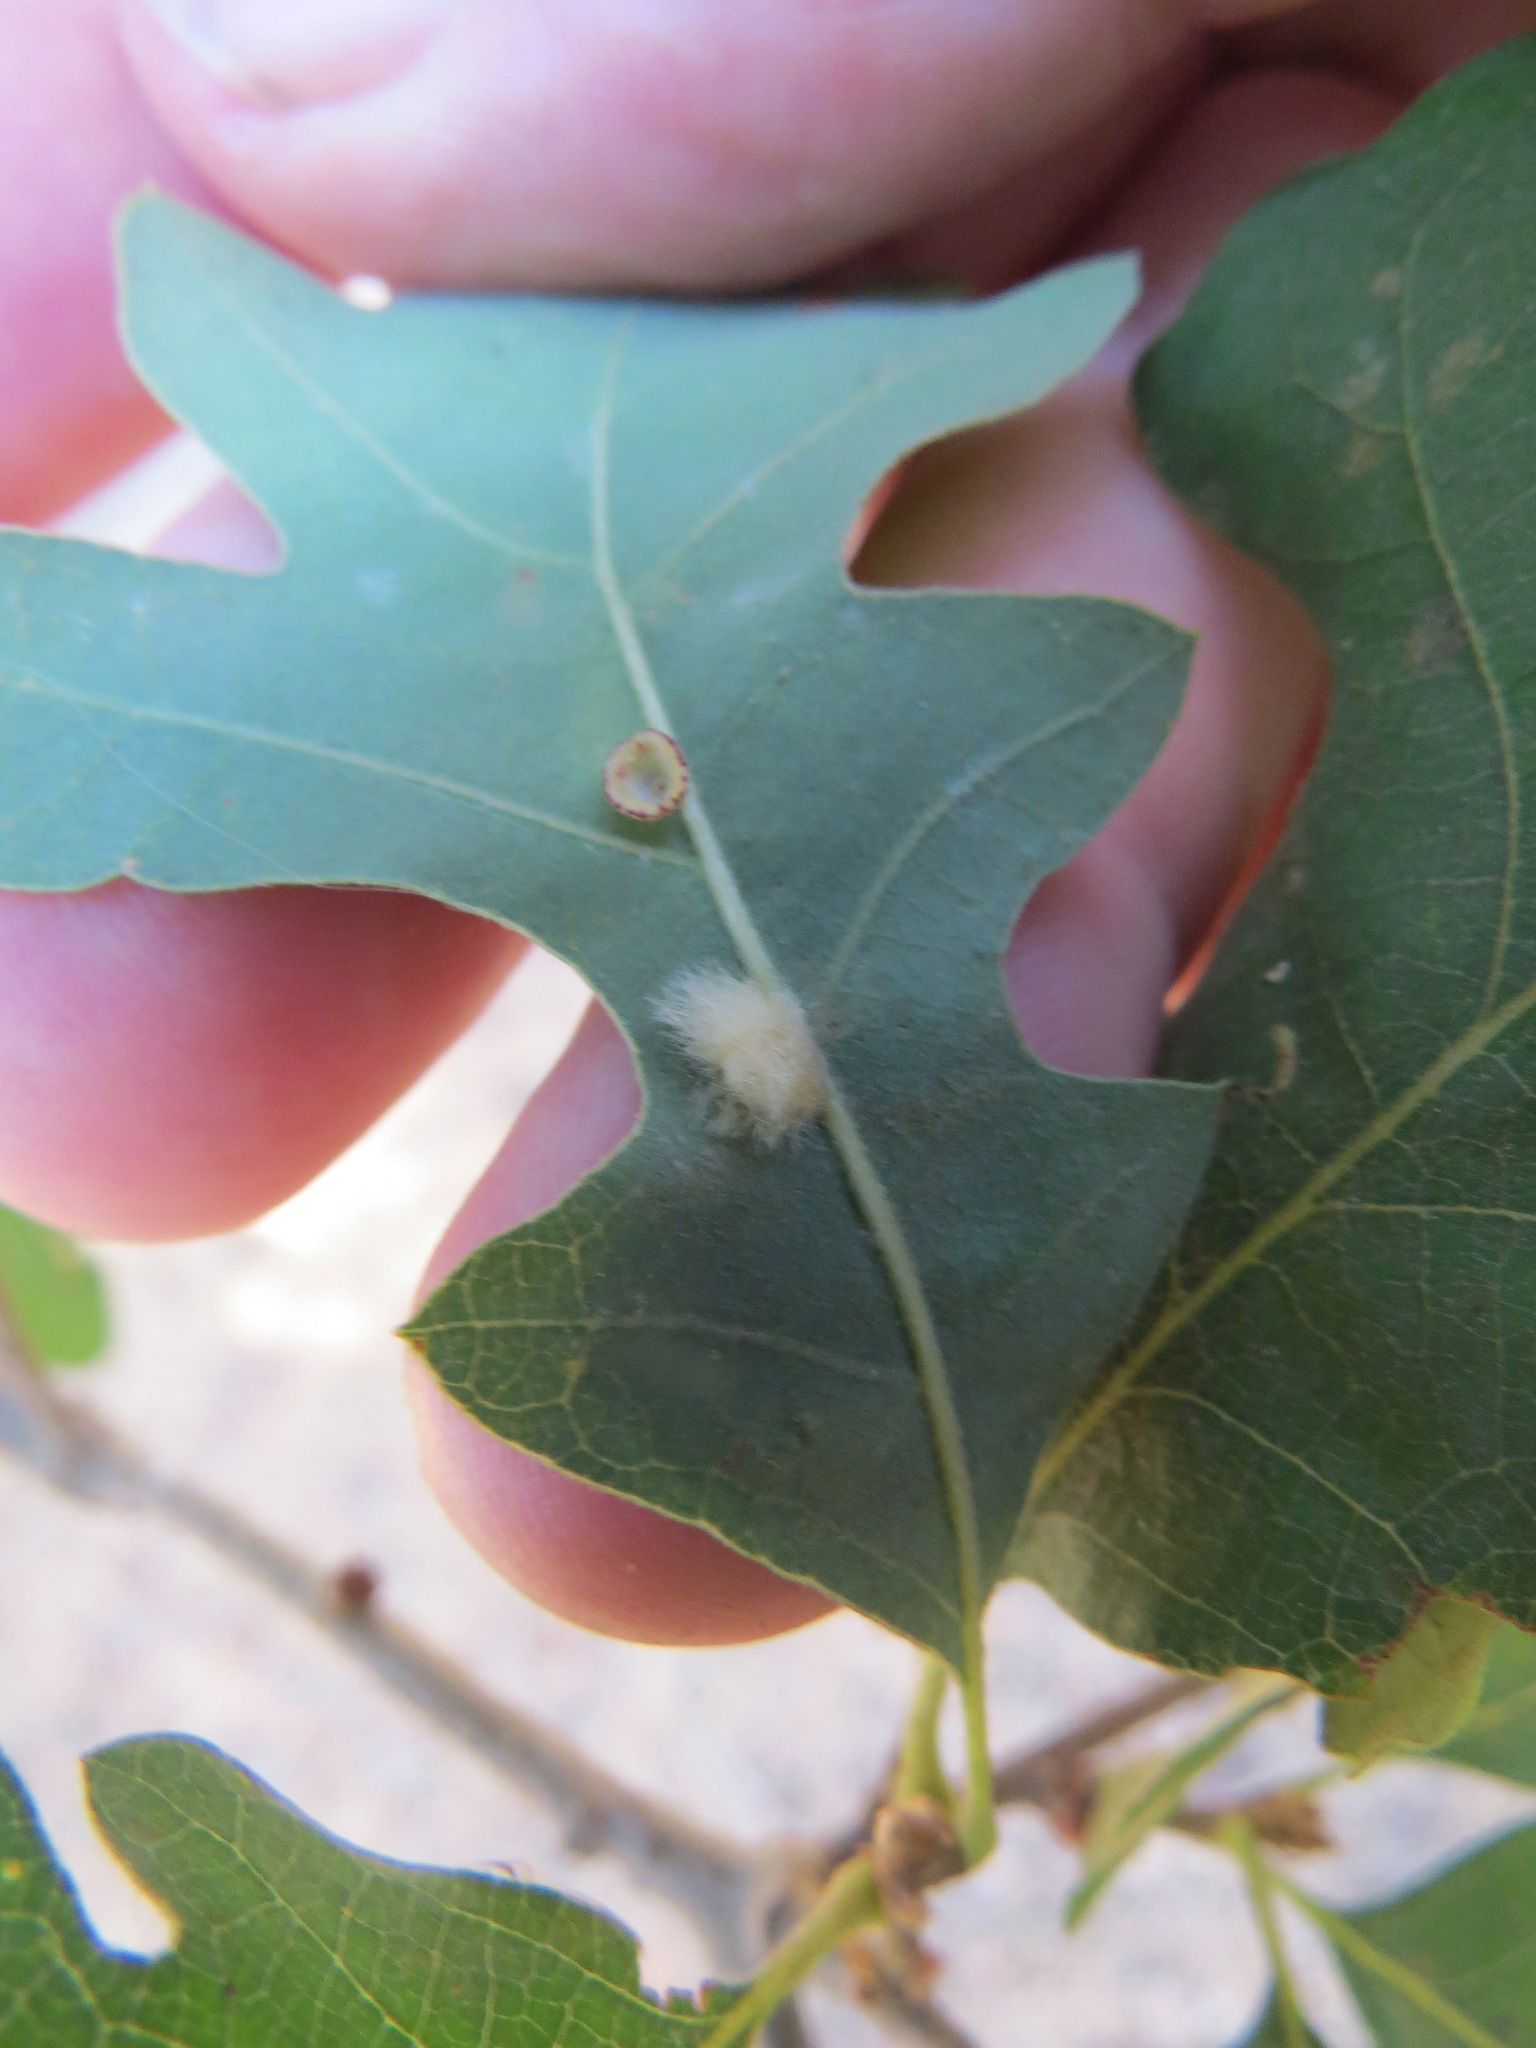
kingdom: Animalia
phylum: Arthropoda
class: Insecta
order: Hymenoptera
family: Cynipidae
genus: Andricus
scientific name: Andricus Druon fullawayi
